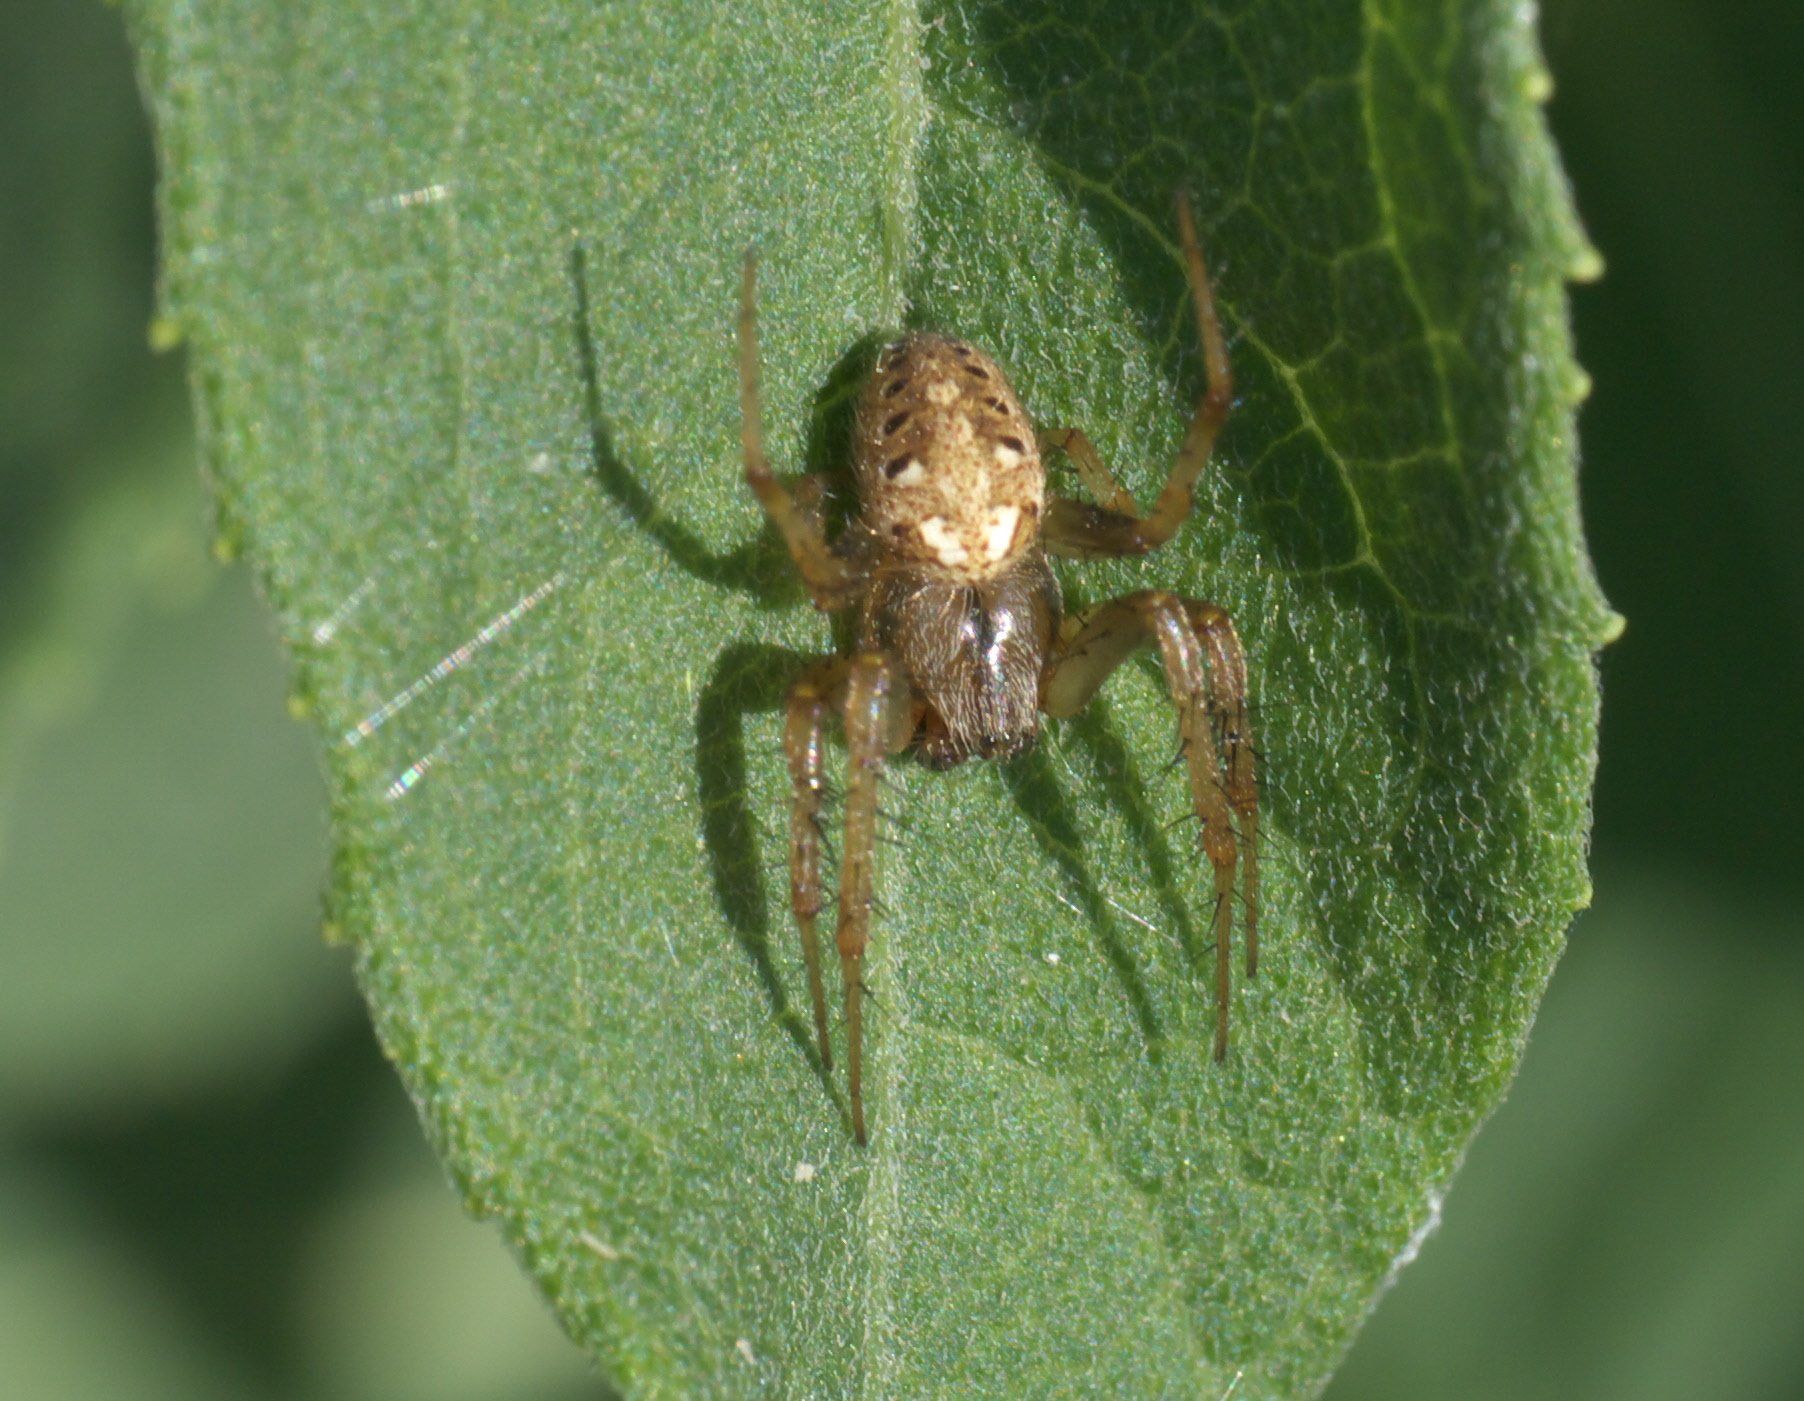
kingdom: Animalia
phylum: Arthropoda
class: Arachnida
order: Araneae
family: Araneidae
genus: Neoscona
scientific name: Neoscona arabesca
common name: Orb weavers
